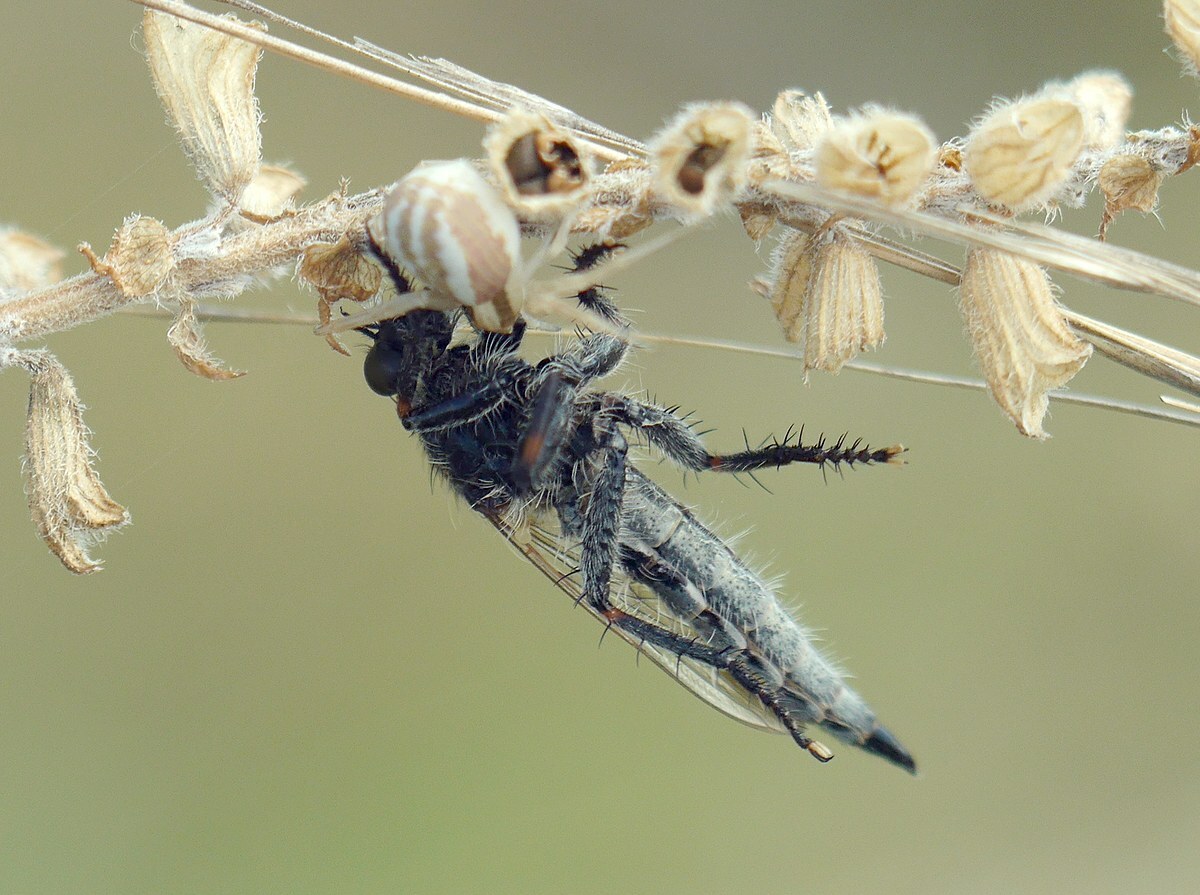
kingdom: Animalia
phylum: Arthropoda
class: Arachnida
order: Araneae
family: Thomisidae
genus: Runcinia
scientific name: Runcinia grammica
